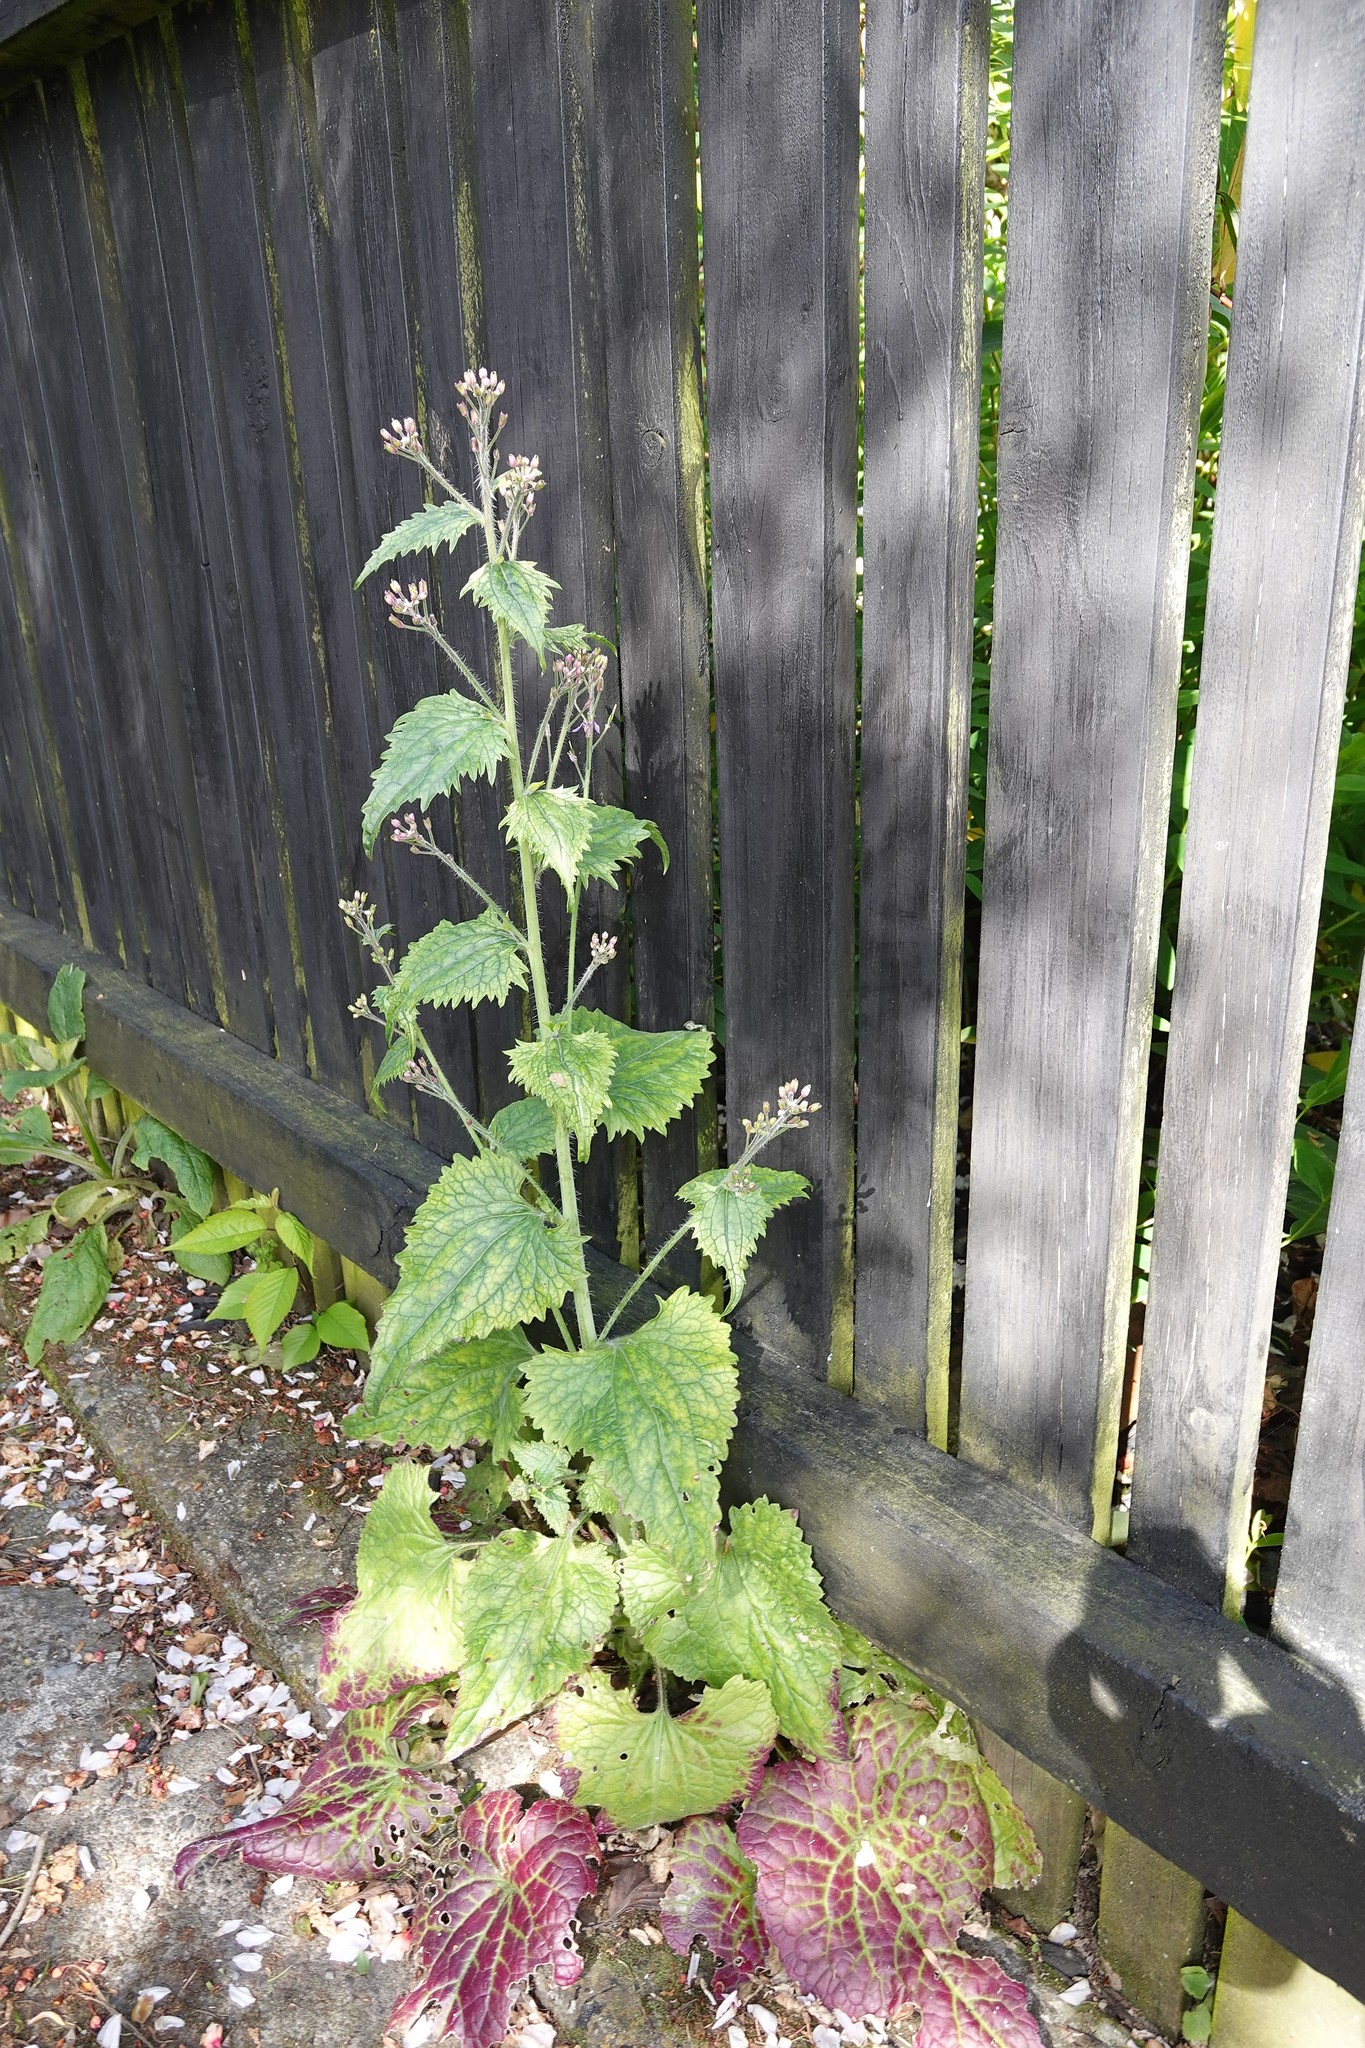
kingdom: Plantae
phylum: Tracheophyta
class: Magnoliopsida
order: Brassicales
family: Brassicaceae
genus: Lunaria
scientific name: Lunaria annua
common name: Honesty
